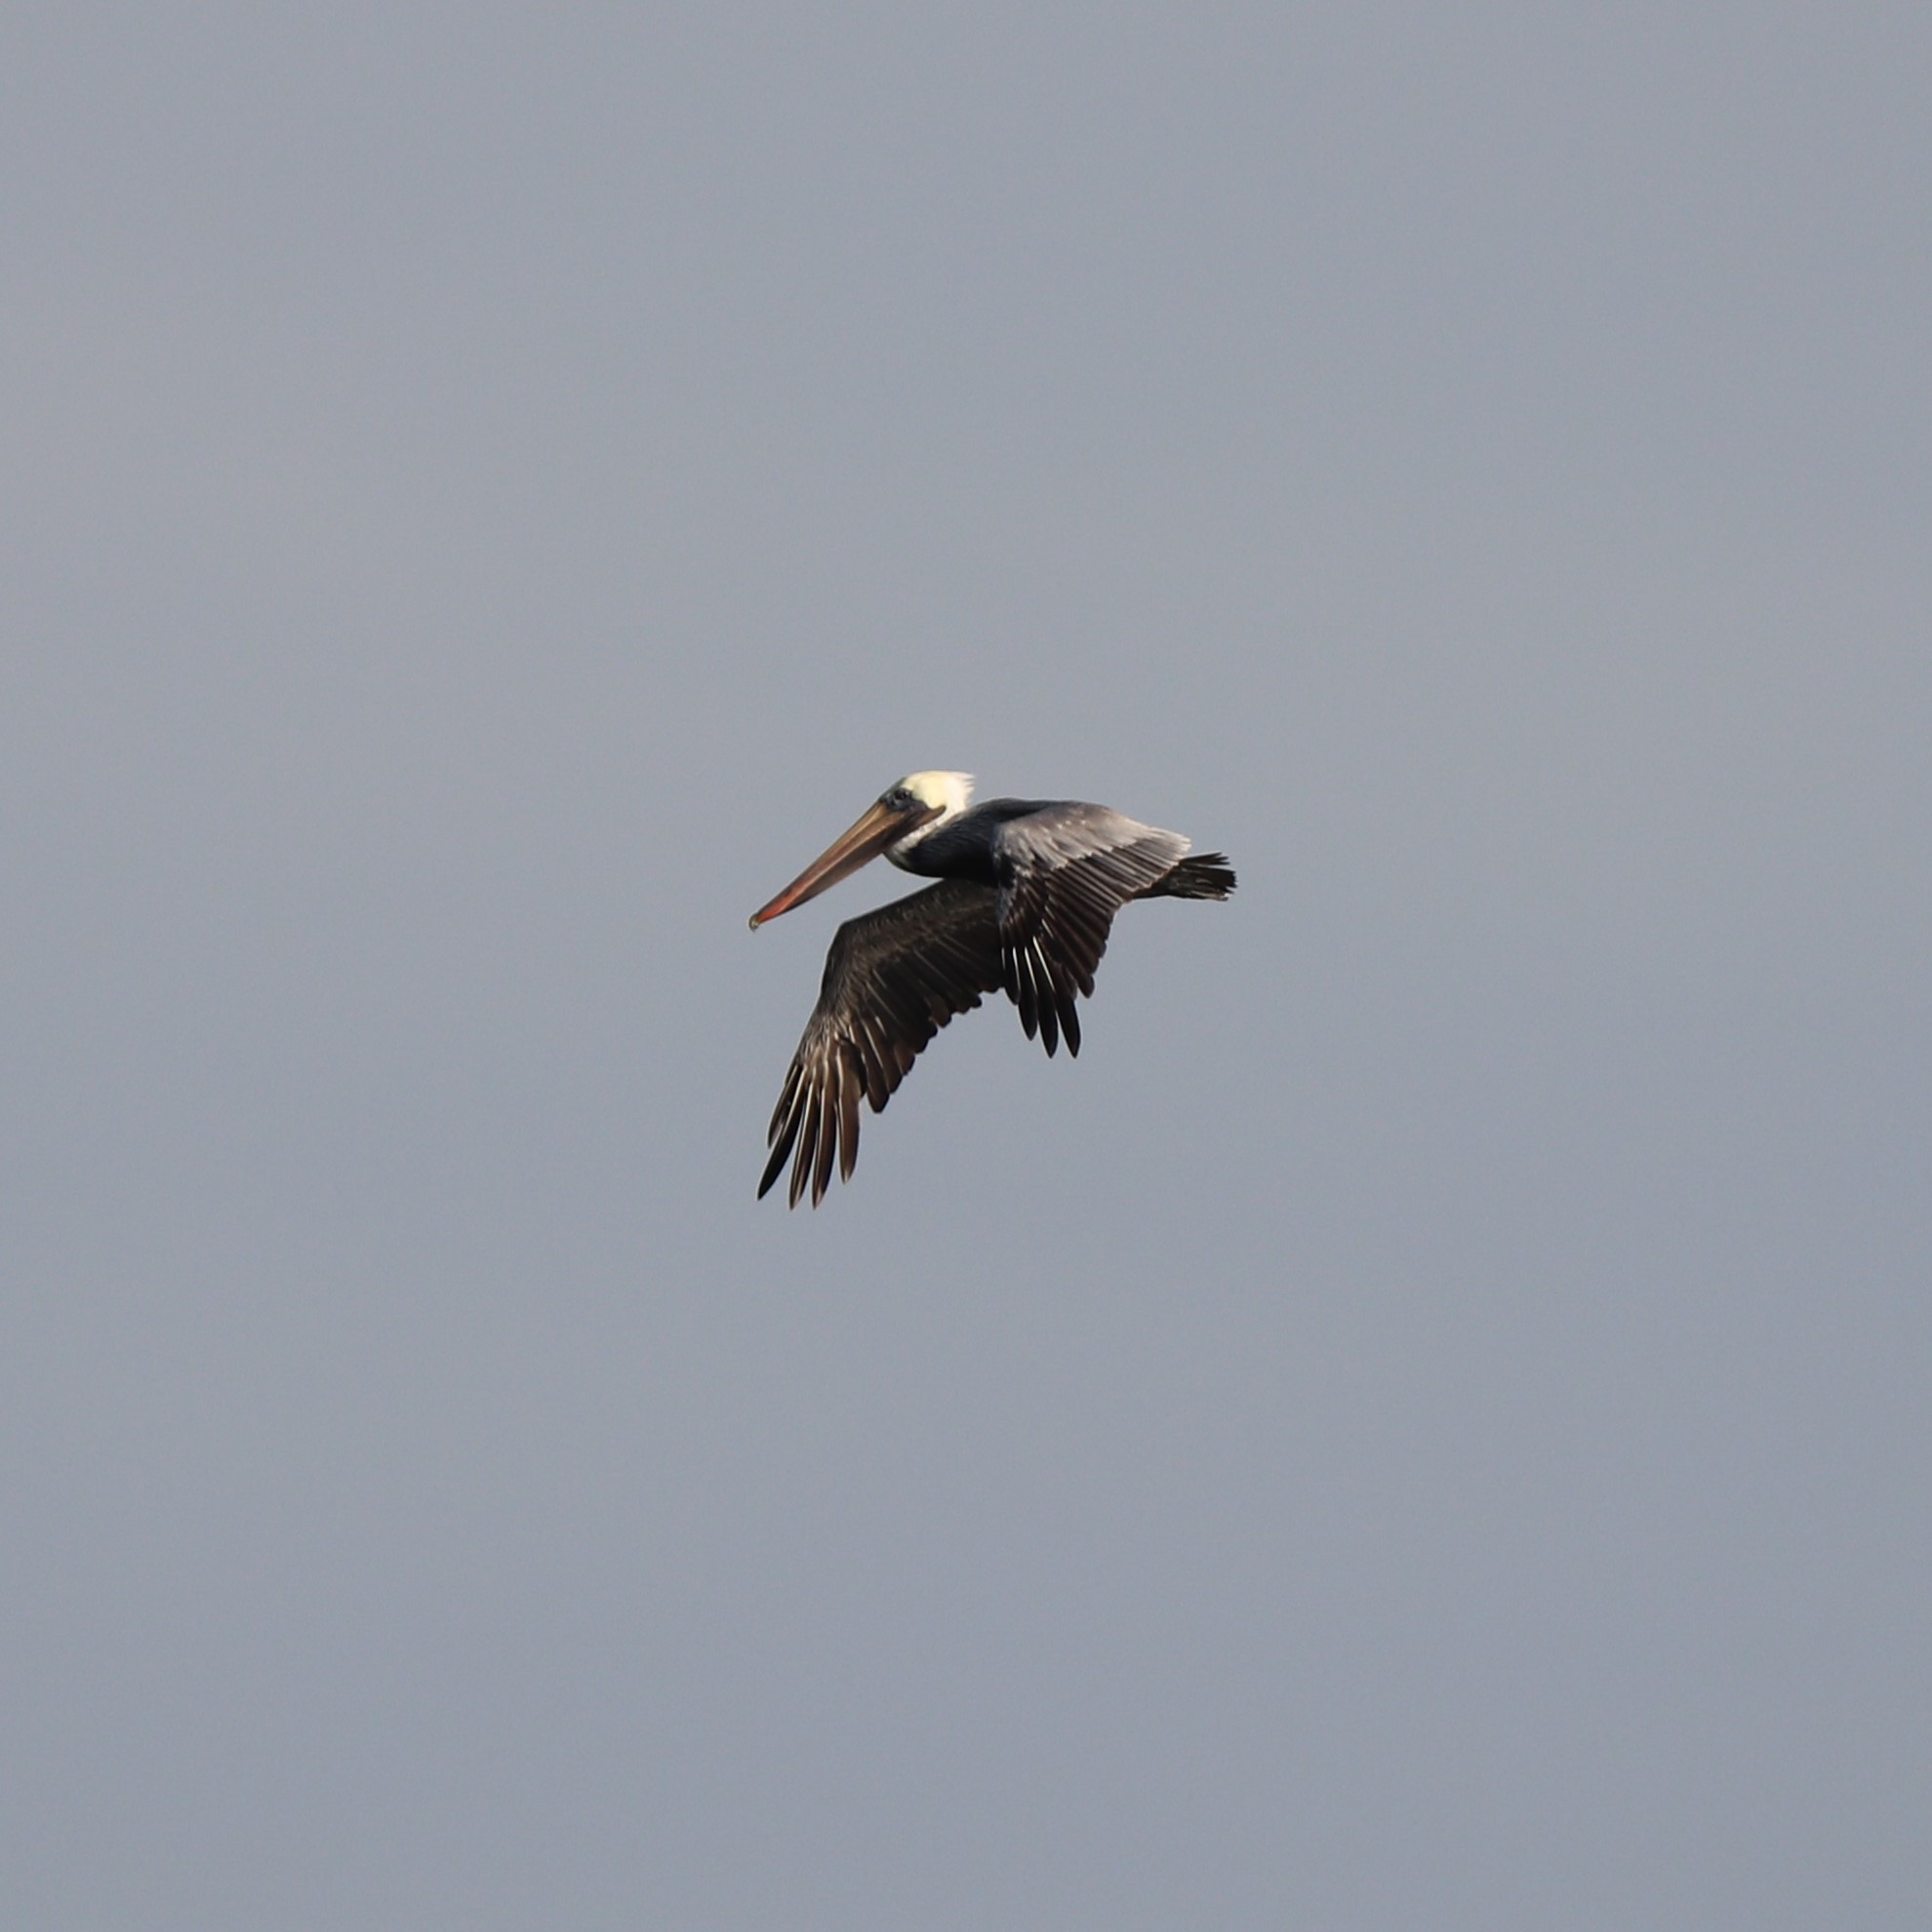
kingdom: Animalia
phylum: Chordata
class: Aves
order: Pelecaniformes
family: Pelecanidae
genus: Pelecanus
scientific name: Pelecanus occidentalis
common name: Brown pelican
